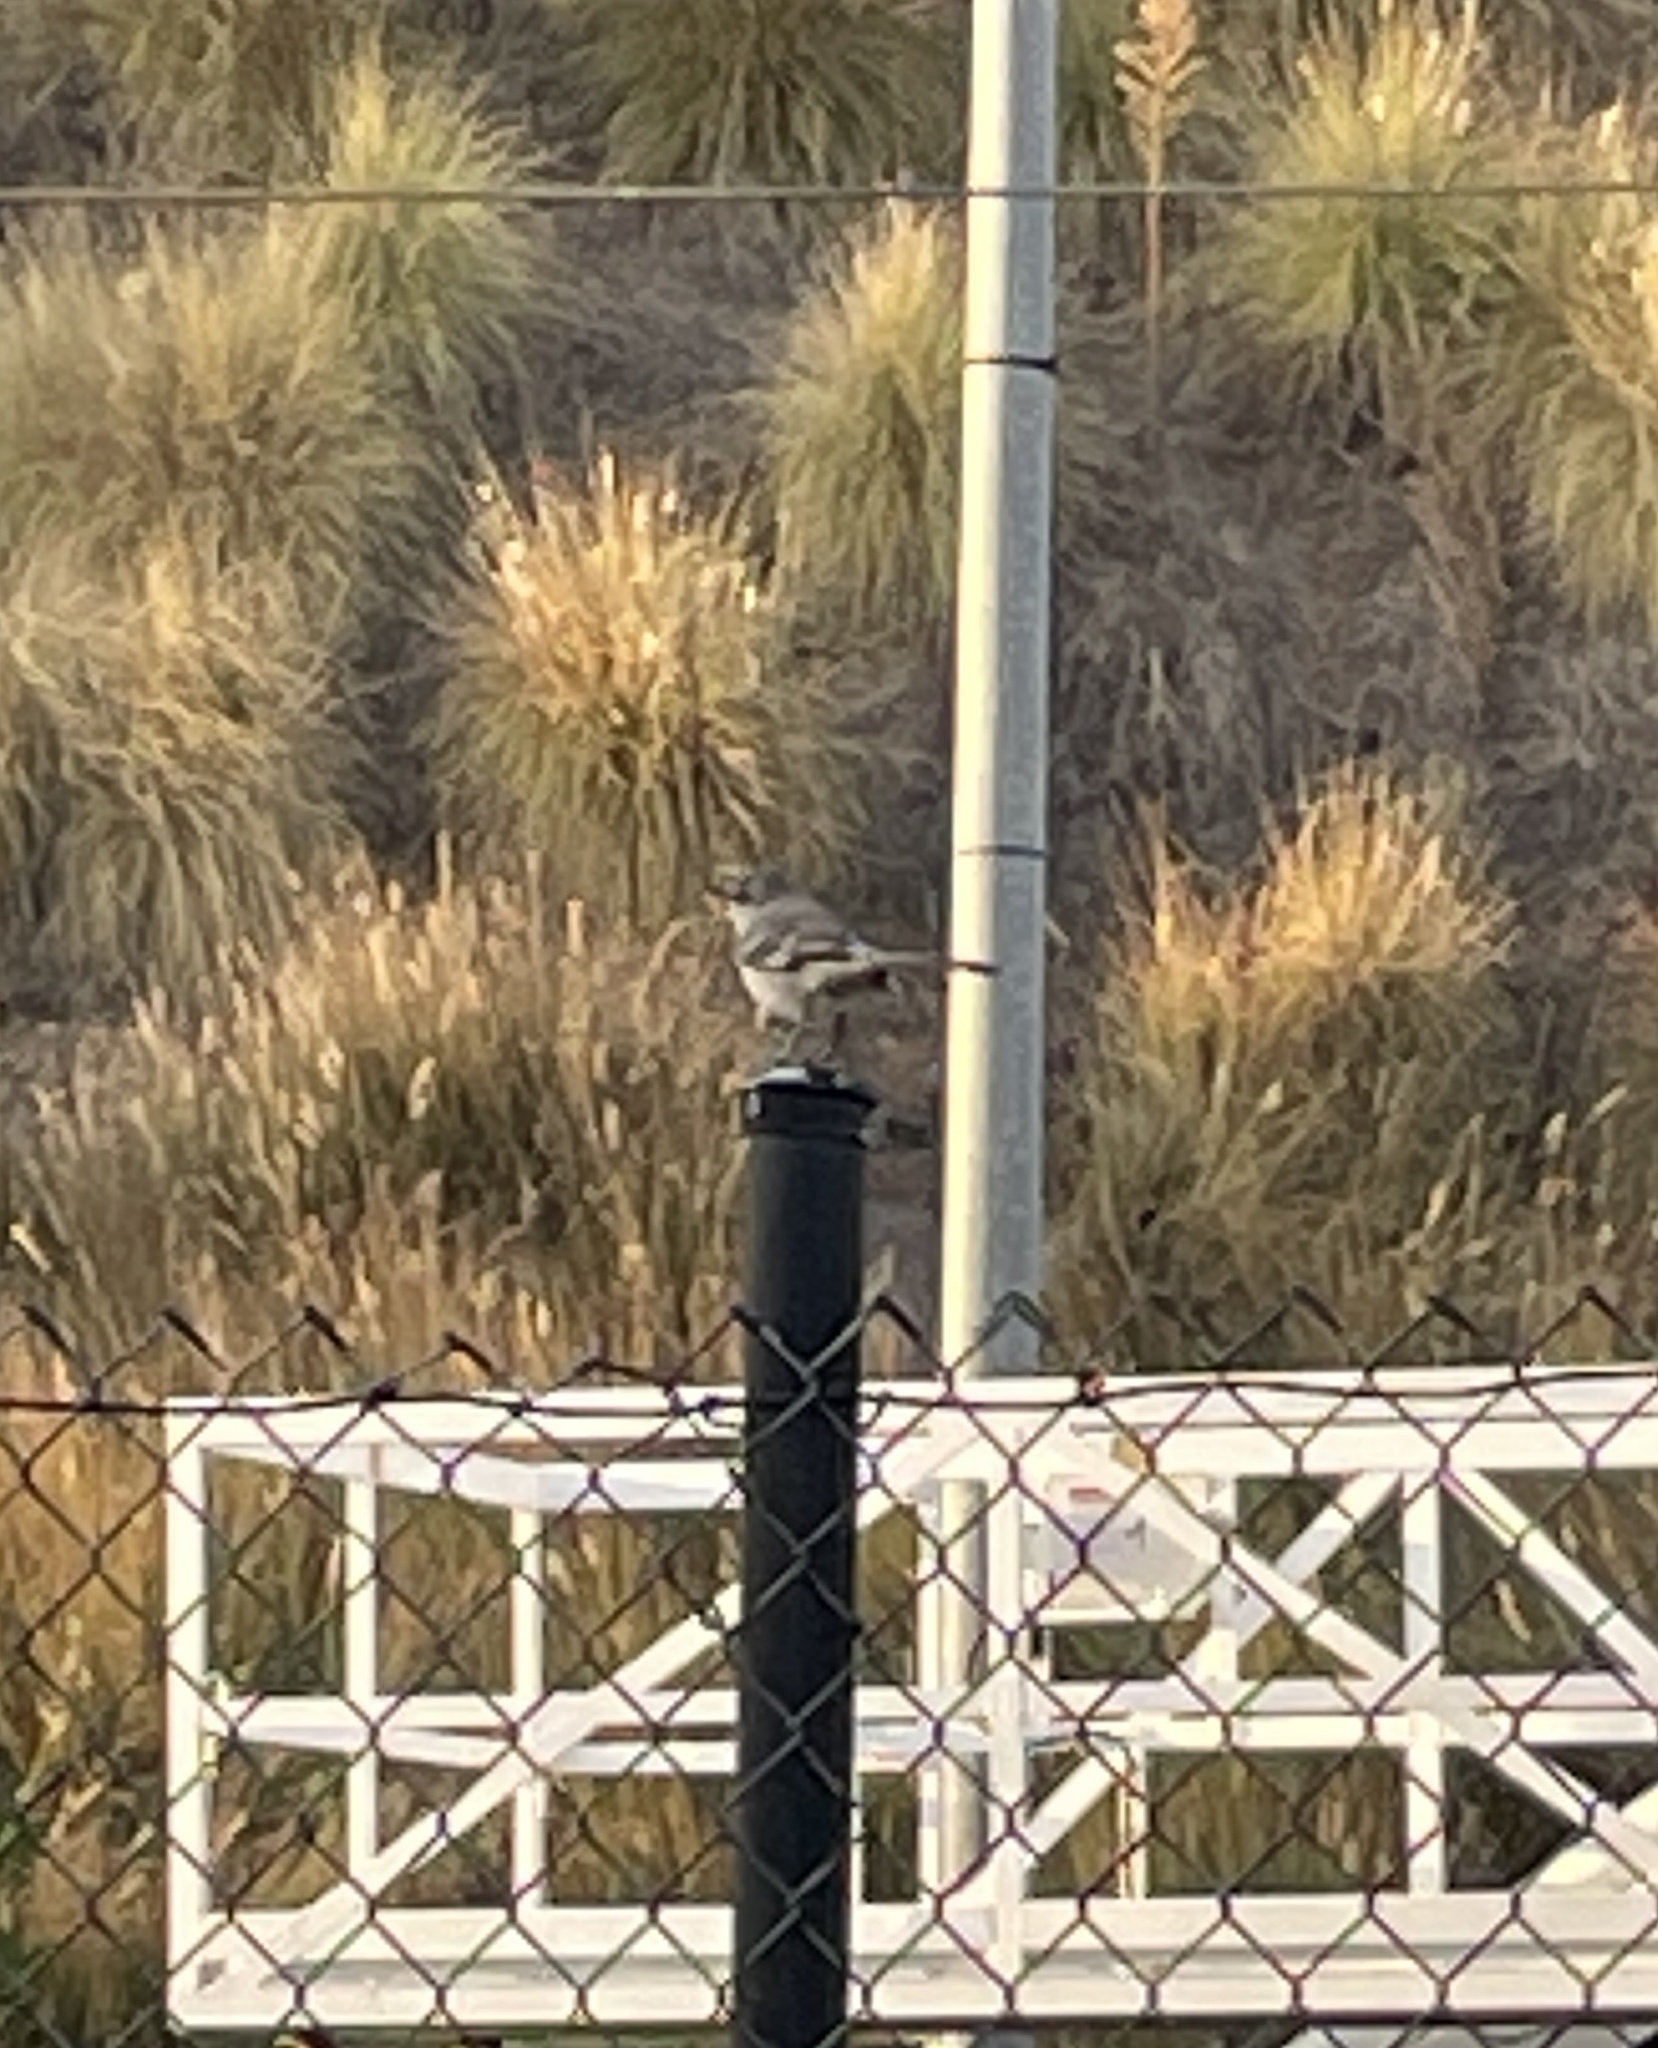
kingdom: Animalia
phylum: Chordata
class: Aves
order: Passeriformes
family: Mimidae
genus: Mimus
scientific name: Mimus polyglottos
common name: Northern mockingbird
